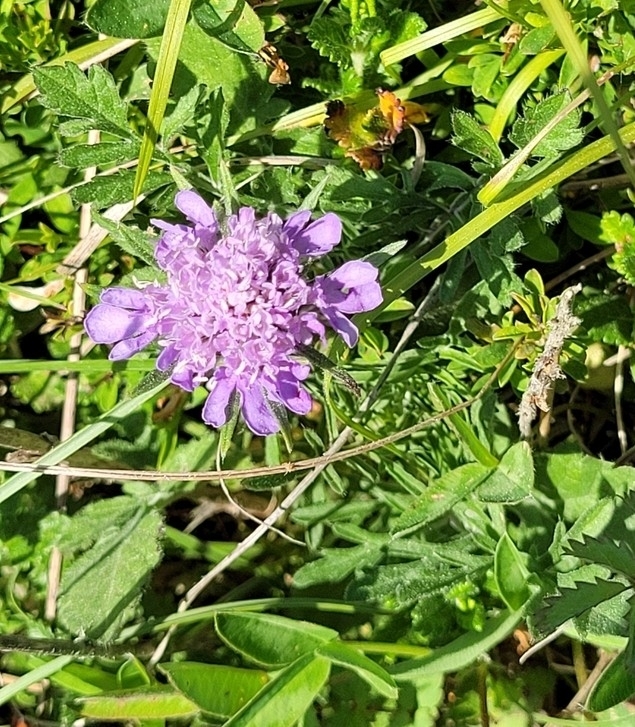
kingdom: Plantae
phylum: Tracheophyta
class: Magnoliopsida
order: Dipsacales
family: Caprifoliaceae
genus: Scabiosa
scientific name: Scabiosa columbaria
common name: Small scabious
